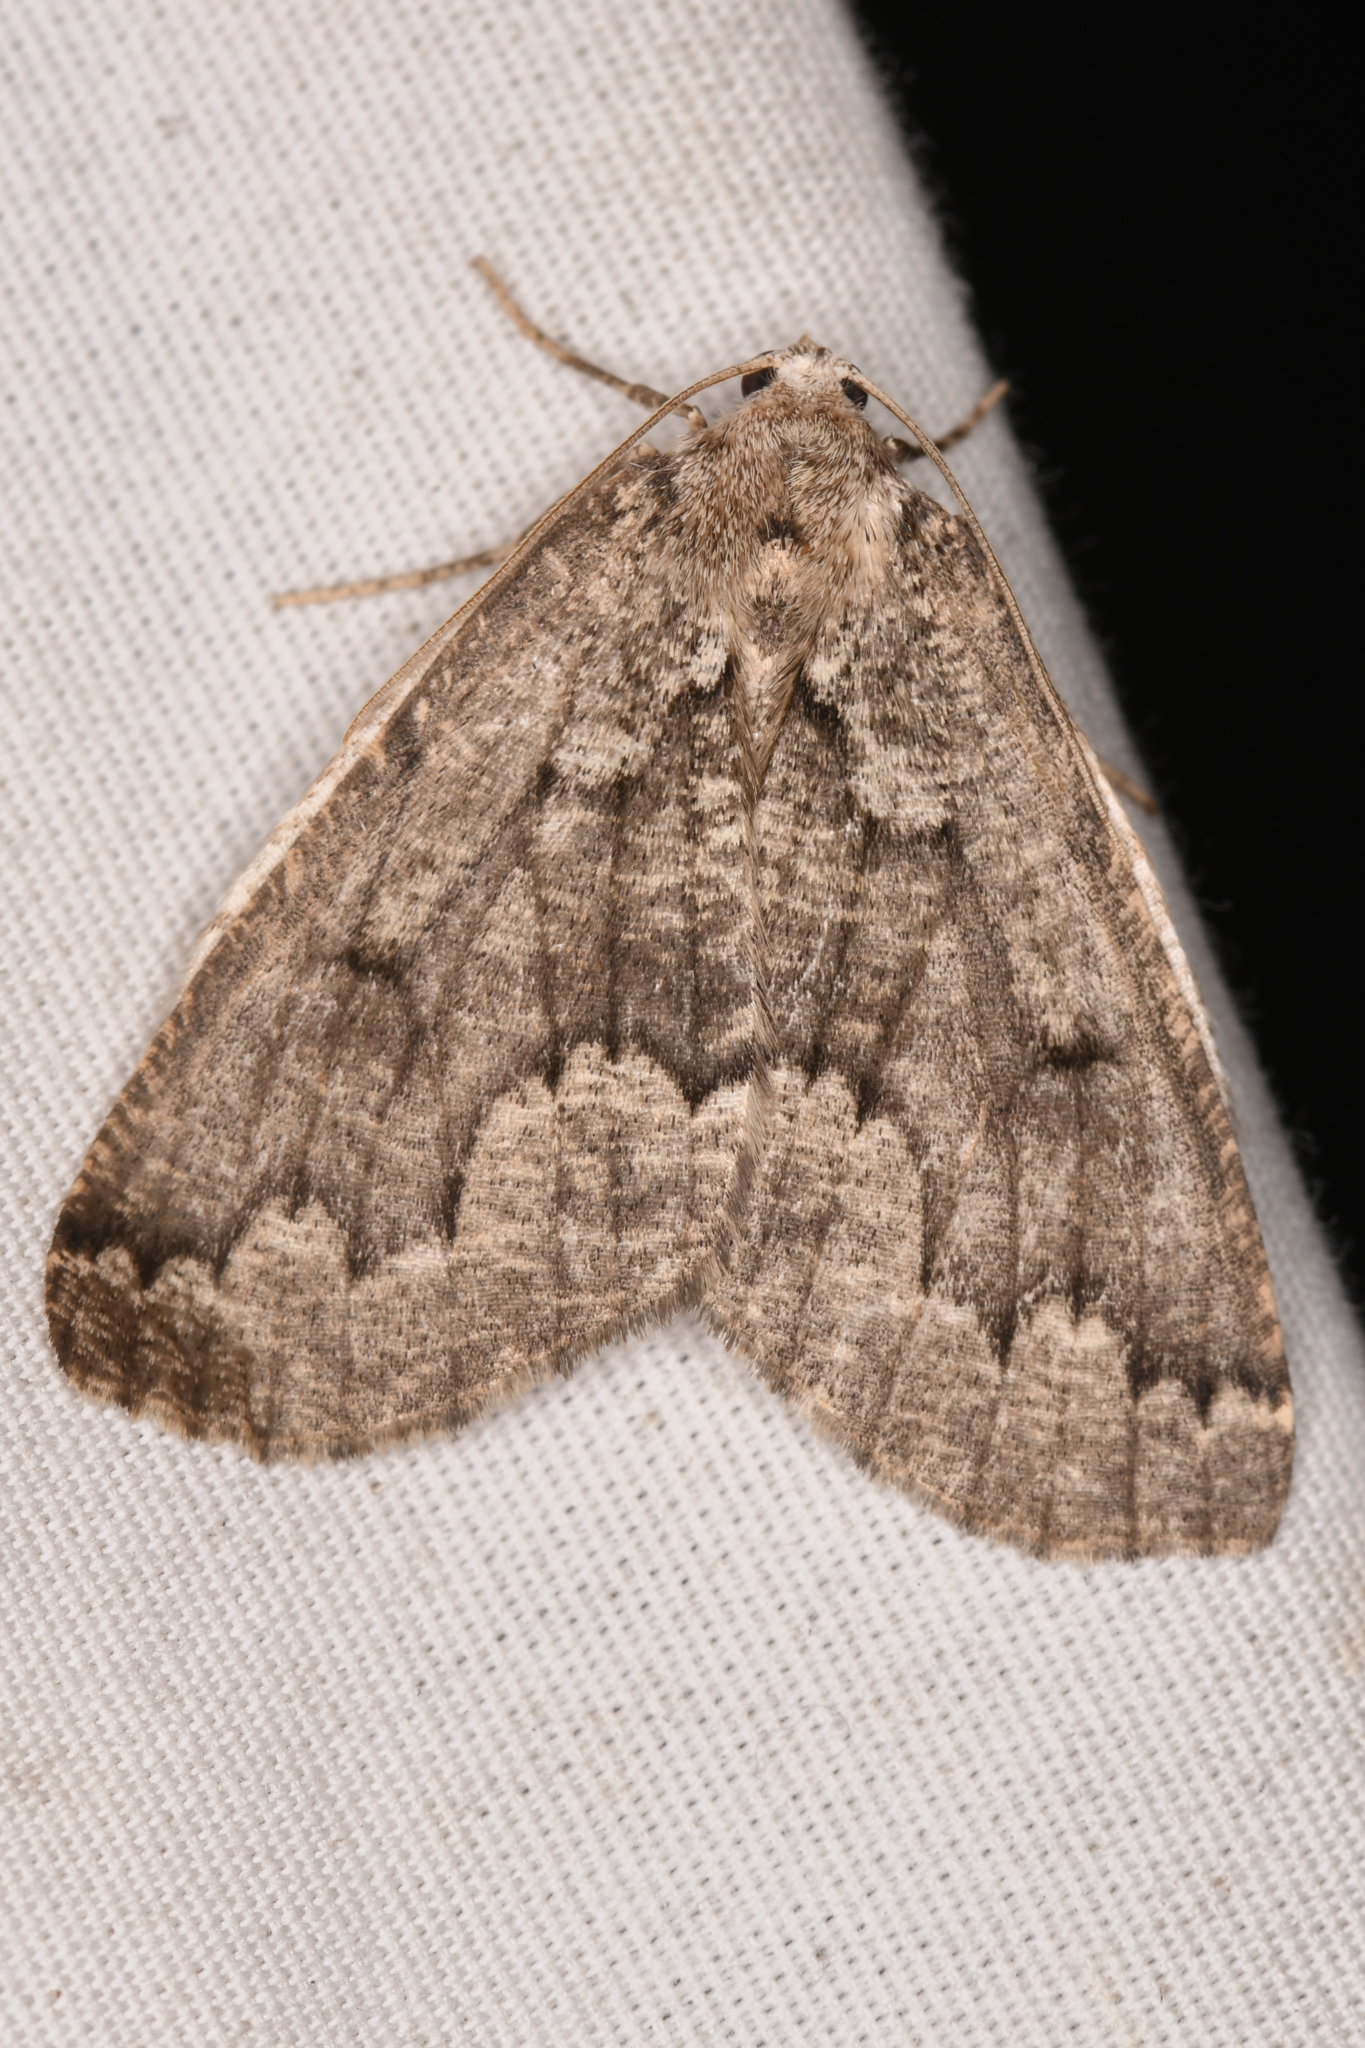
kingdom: Animalia
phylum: Arthropoda
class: Insecta
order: Lepidoptera
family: Geometridae
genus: Sabulodes
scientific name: Sabulodes
